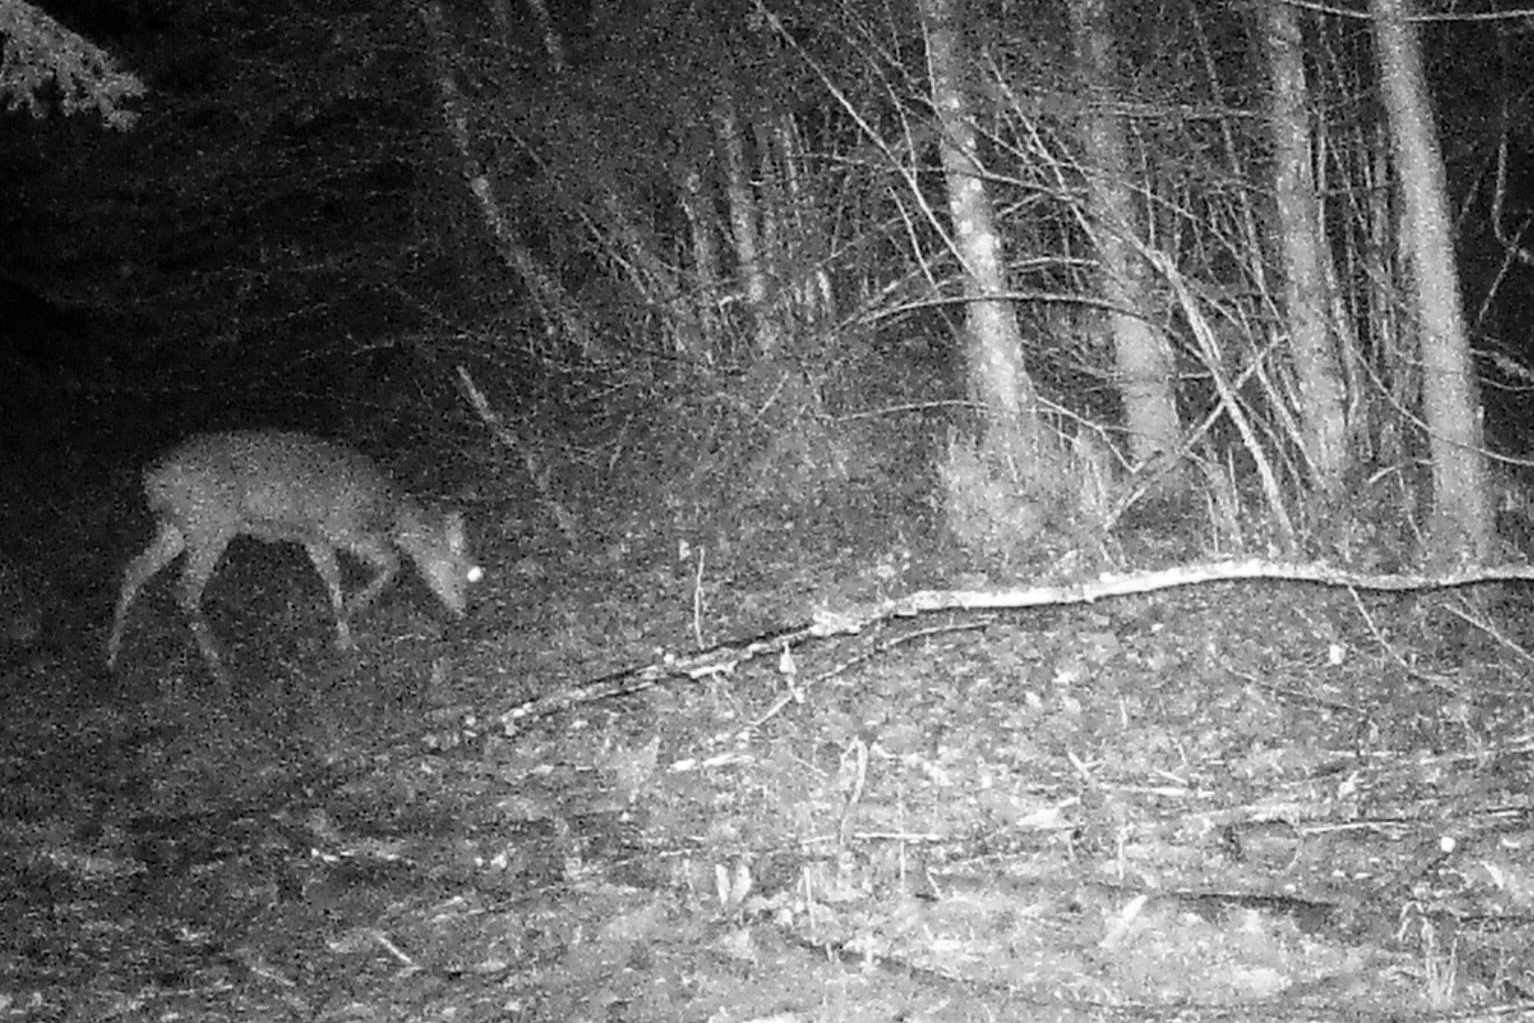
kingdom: Animalia
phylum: Chordata
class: Mammalia
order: Artiodactyla
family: Cervidae
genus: Capreolus
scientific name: Capreolus capreolus
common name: Western roe deer
